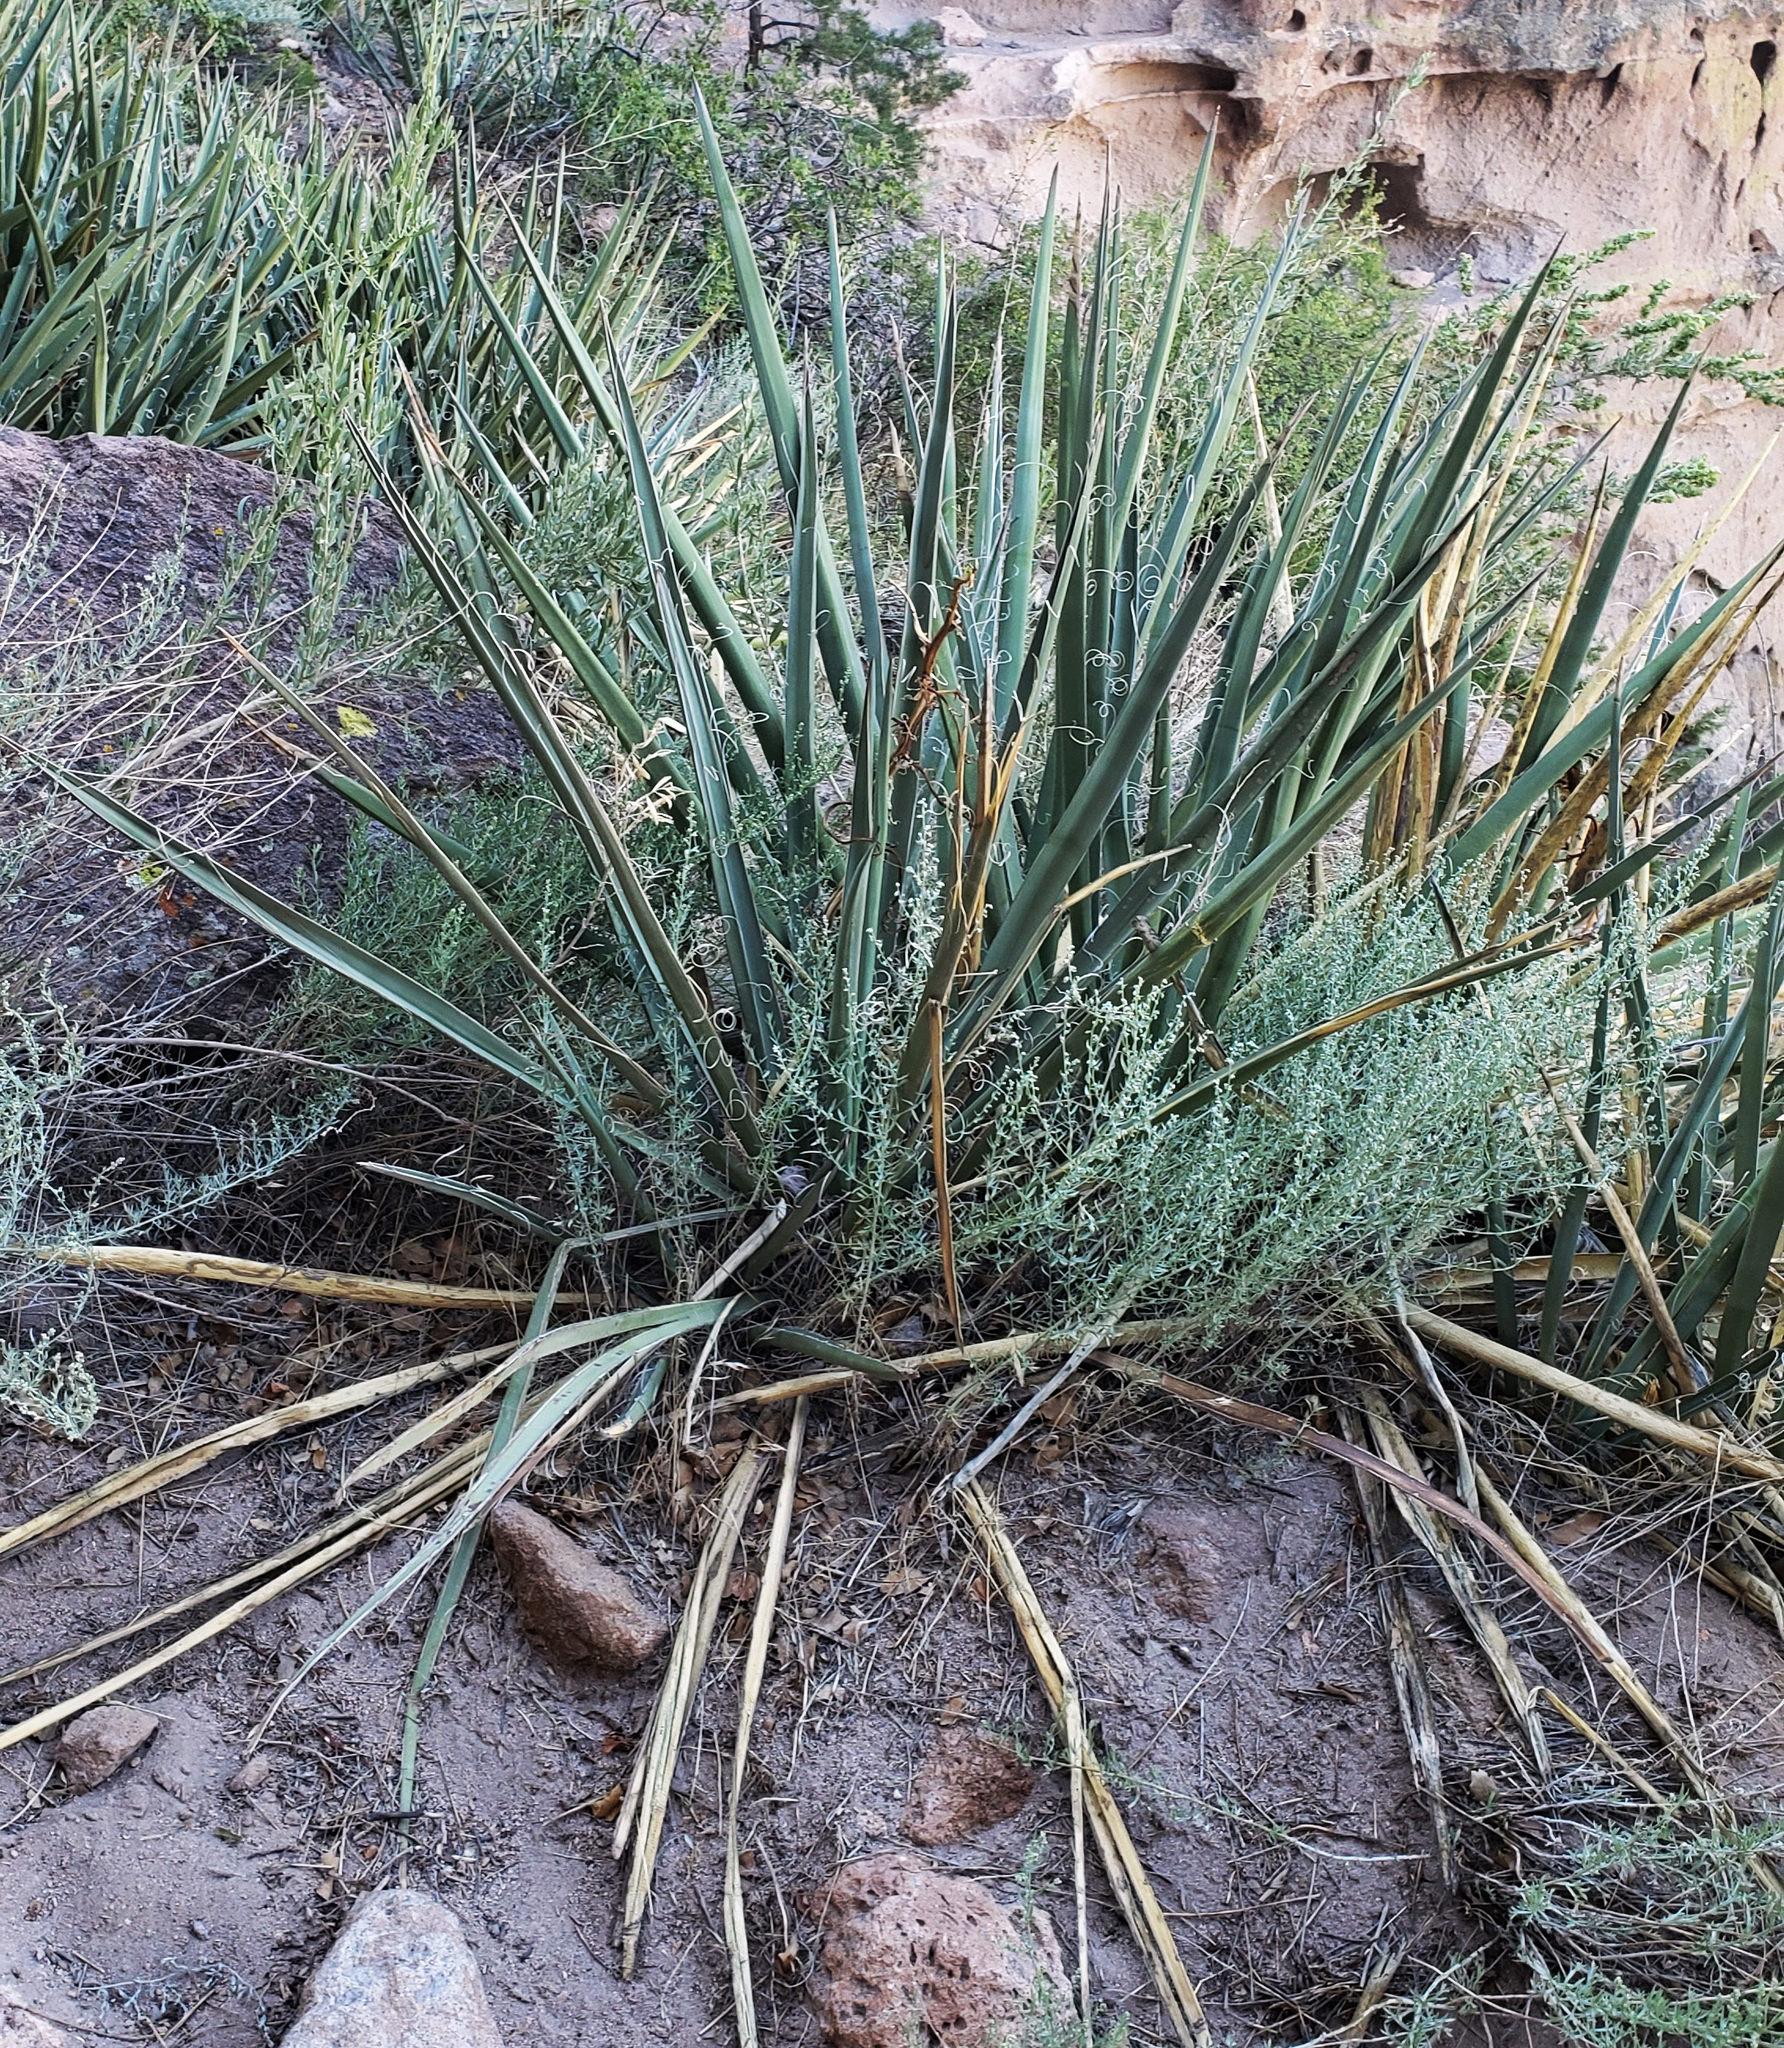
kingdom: Plantae
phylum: Tracheophyta
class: Liliopsida
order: Asparagales
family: Asparagaceae
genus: Yucca
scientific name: Yucca baccata
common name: Banana yucca
